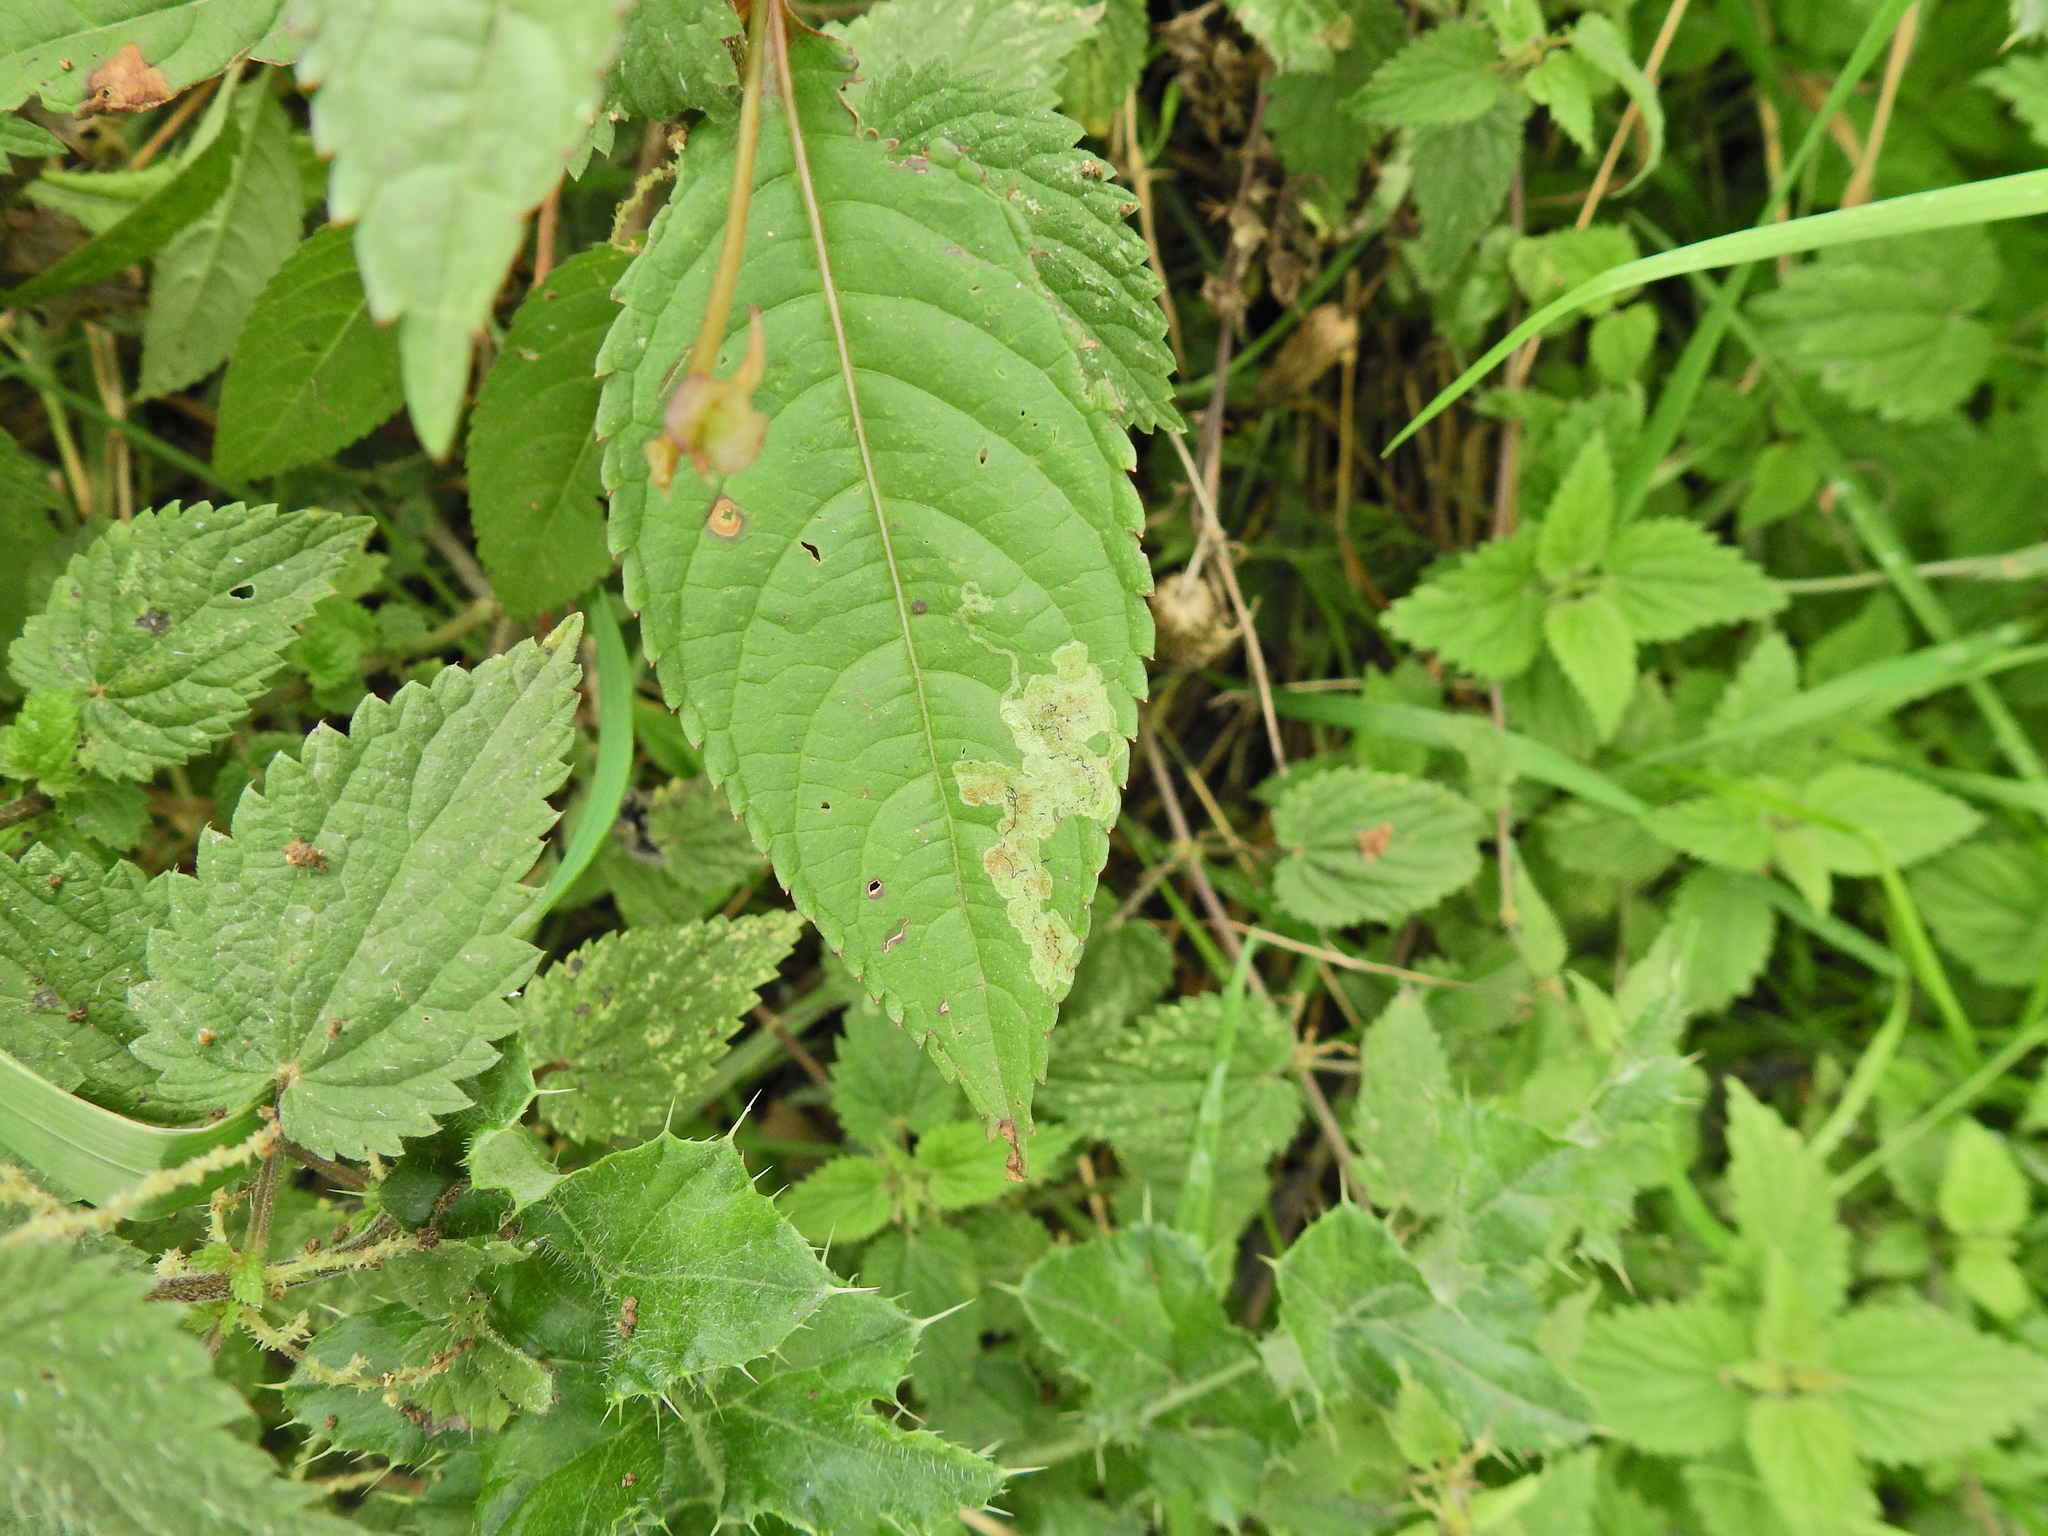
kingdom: Animalia
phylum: Arthropoda
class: Insecta
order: Diptera
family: Agromyzidae
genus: Phytoliriomyza
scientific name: Phytoliriomyza melampyga
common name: Jewelweed leaf-miner fly
